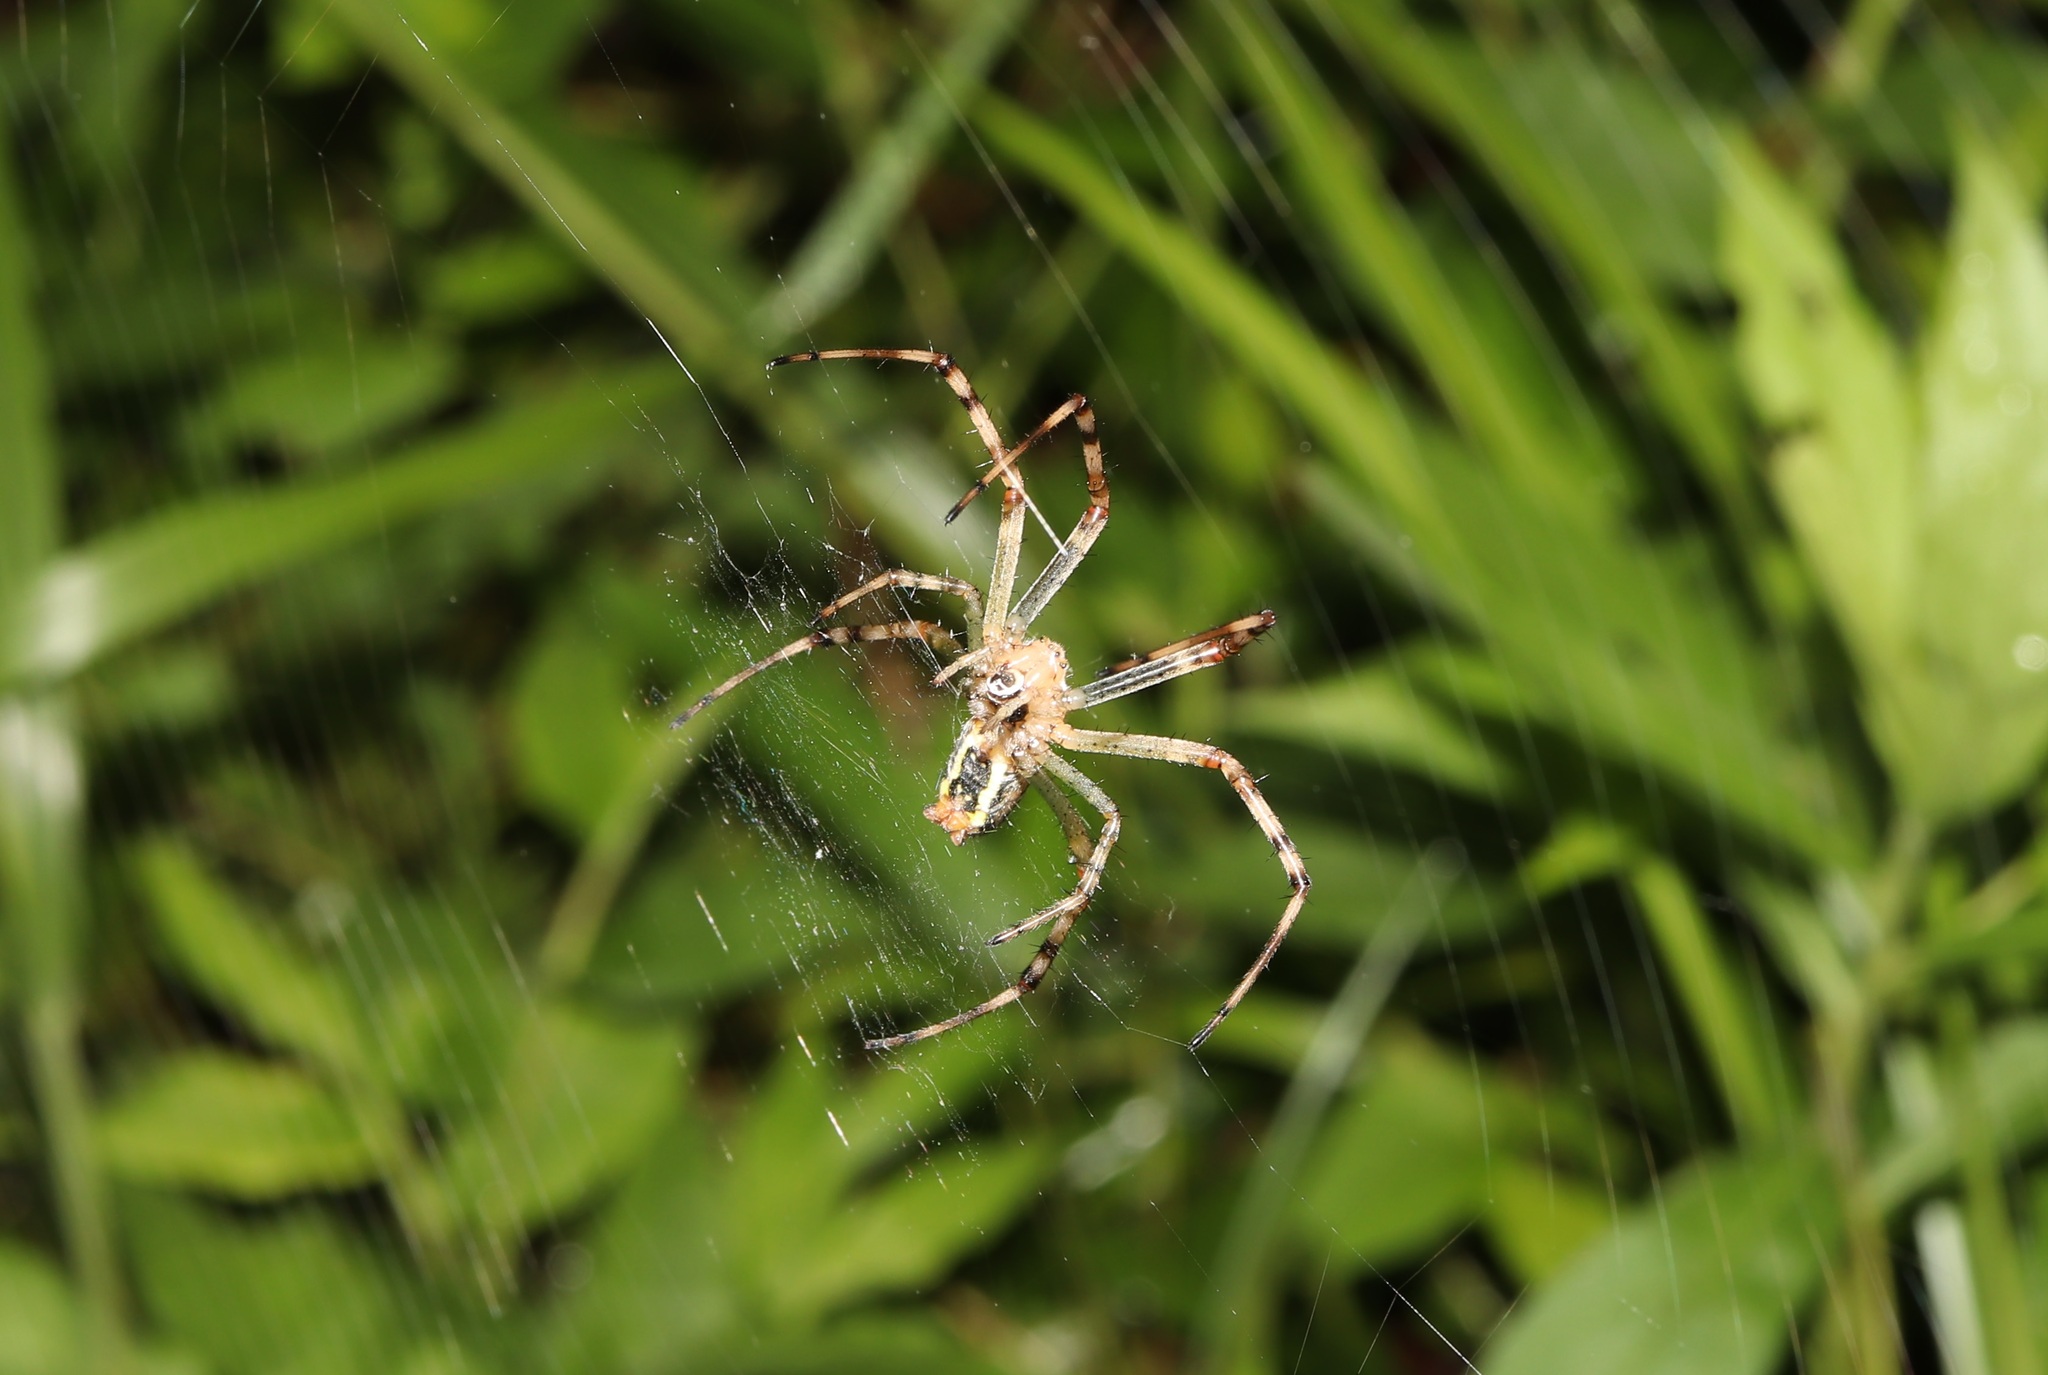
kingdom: Animalia
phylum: Arthropoda
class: Arachnida
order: Araneae
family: Araneidae
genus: Argiope
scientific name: Argiope bruennichi
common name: Wasp spider
